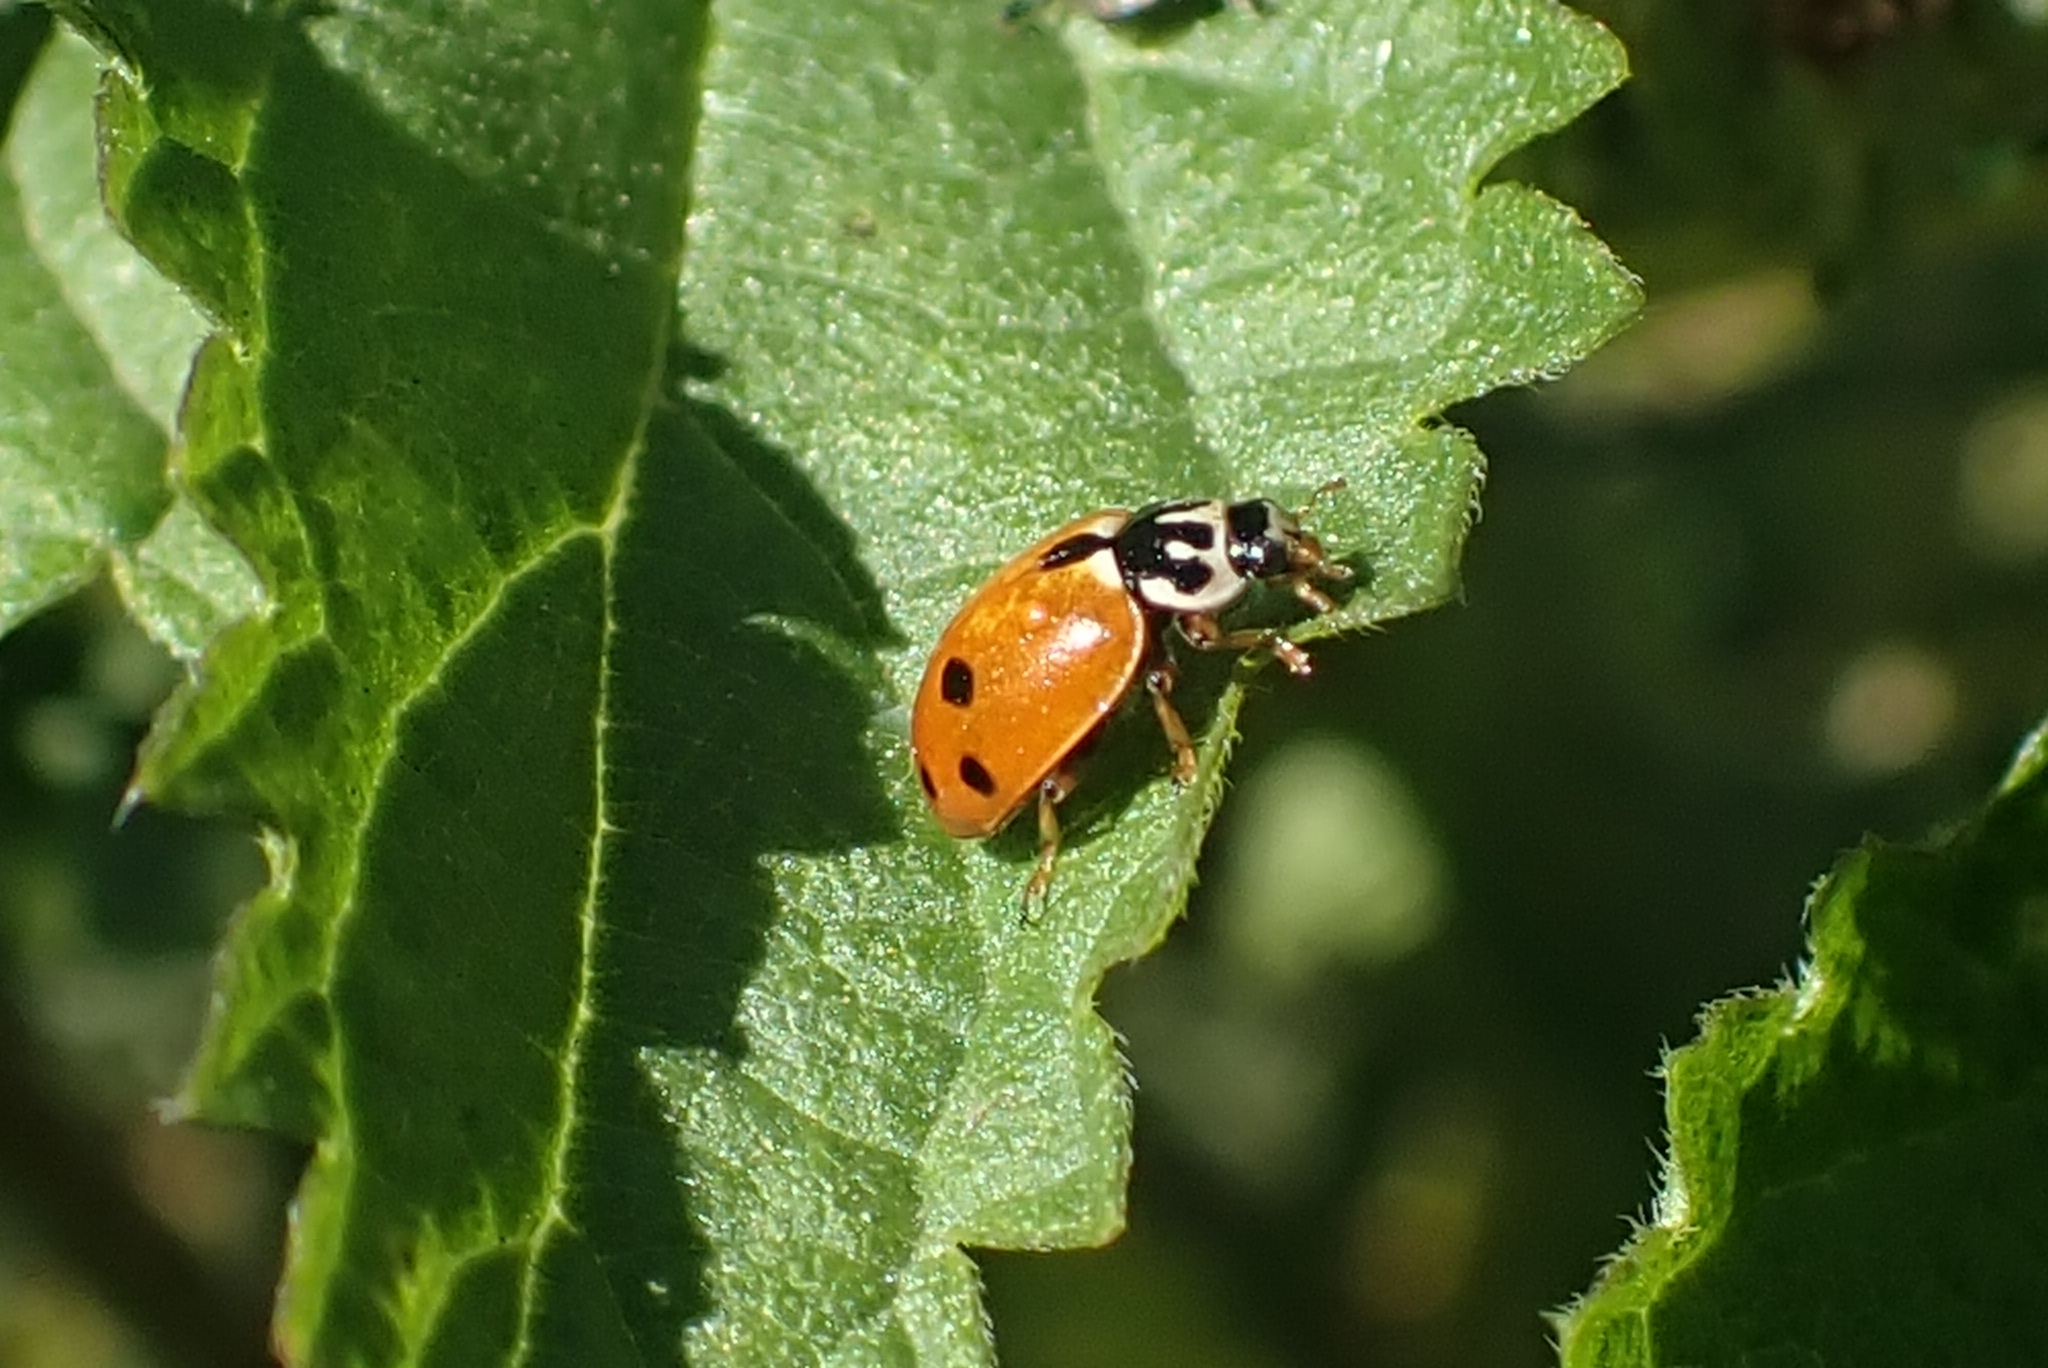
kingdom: Animalia
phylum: Arthropoda
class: Insecta
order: Coleoptera
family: Coccinellidae
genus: Hippodamia
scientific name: Hippodamia variegata
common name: Ladybird beetle
